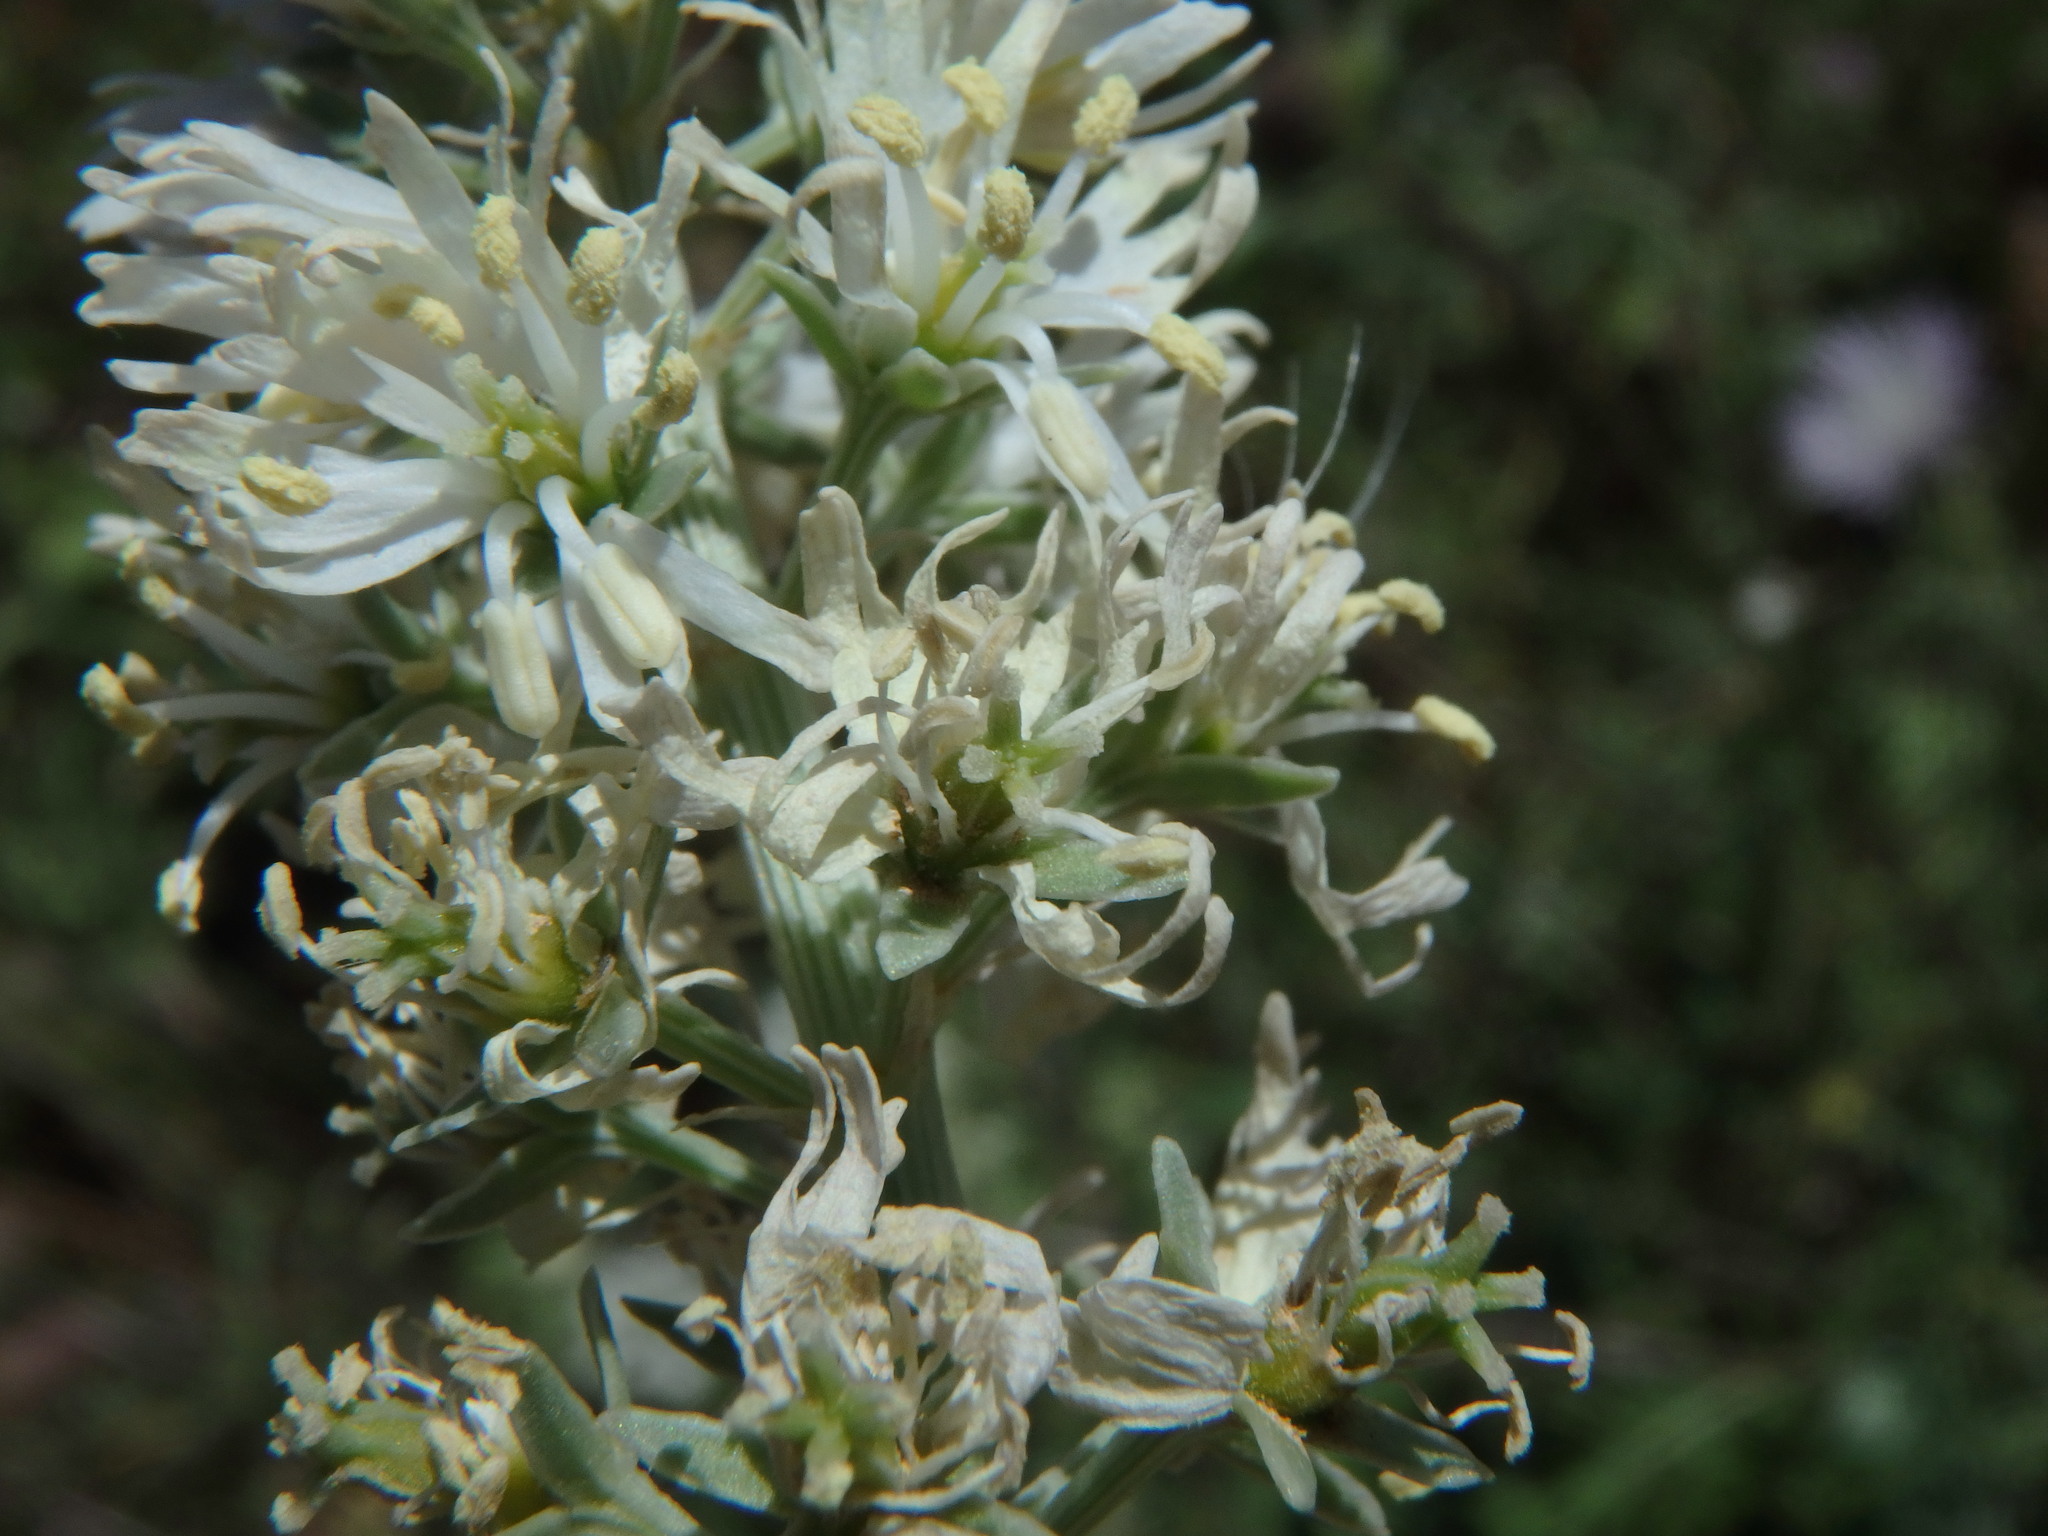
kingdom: Plantae
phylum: Tracheophyta
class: Magnoliopsida
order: Brassicales
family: Resedaceae
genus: Reseda
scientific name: Reseda alba
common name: White mignonette
